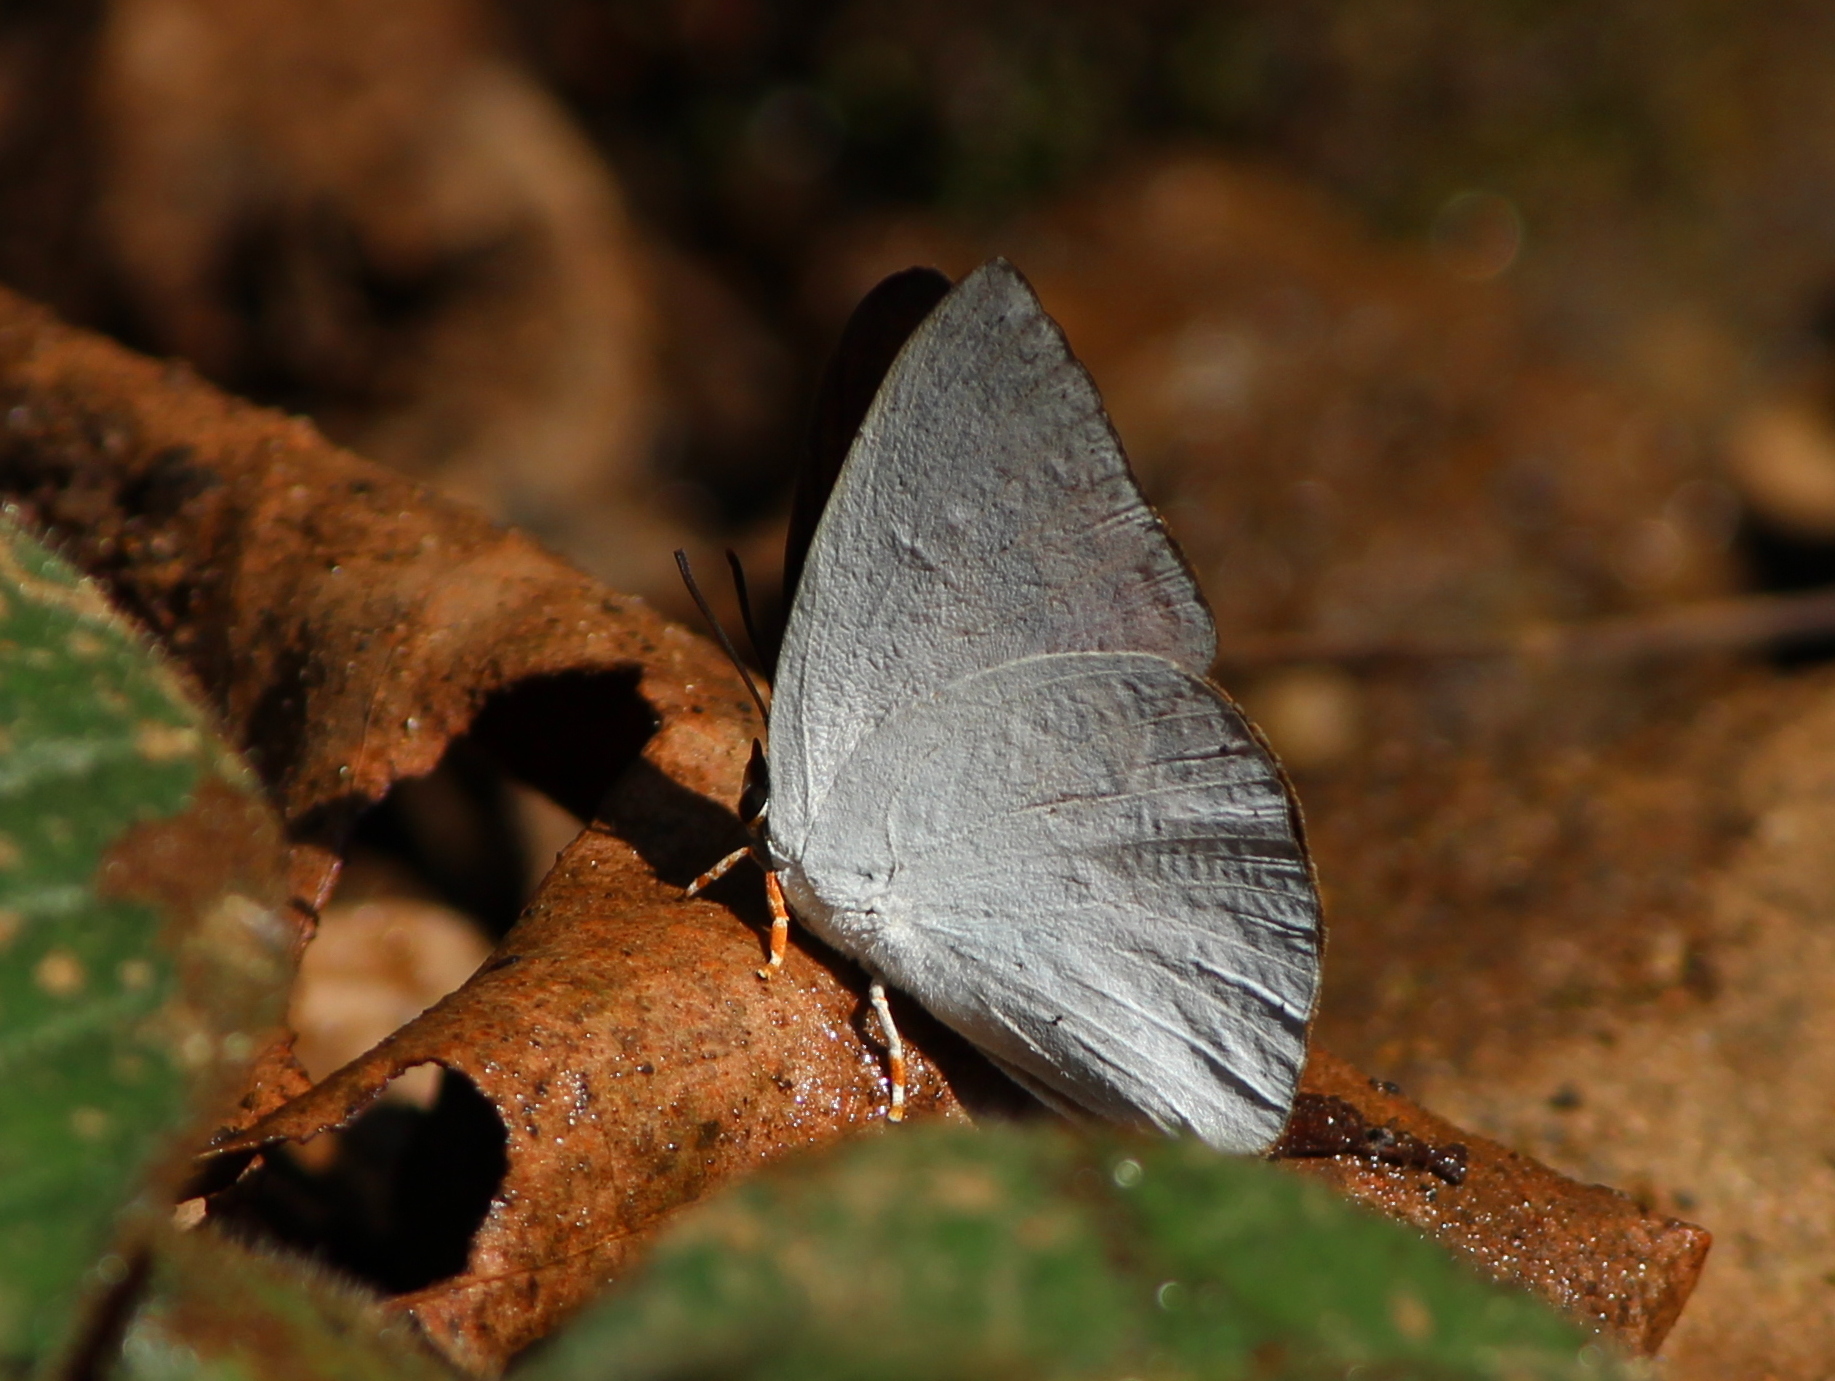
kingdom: Animalia
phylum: Arthropoda
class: Insecta
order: Lepidoptera
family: Lycaenidae
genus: Curetis
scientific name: Curetis thetis
